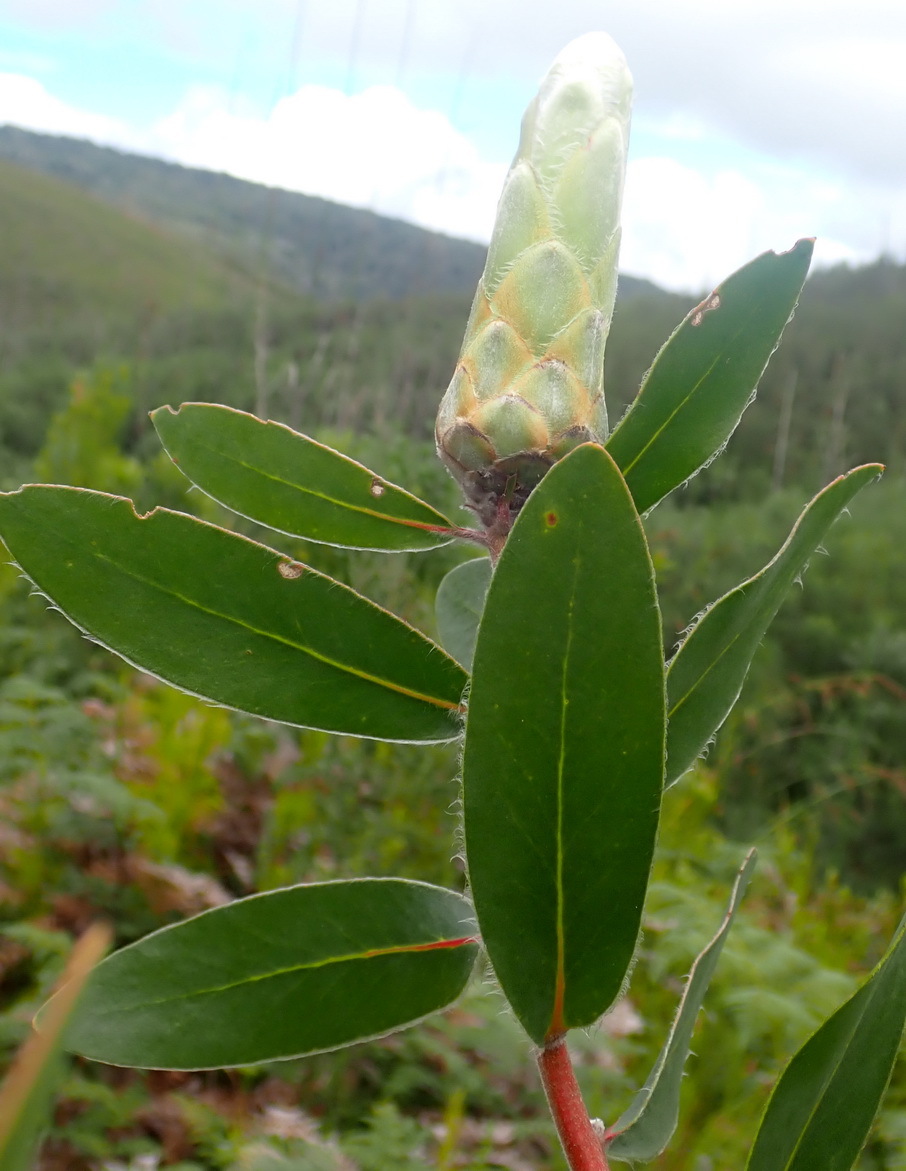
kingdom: Plantae
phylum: Tracheophyta
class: Magnoliopsida
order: Proteales
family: Proteaceae
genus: Protea
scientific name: Protea mundii
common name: Forest sugarbush
